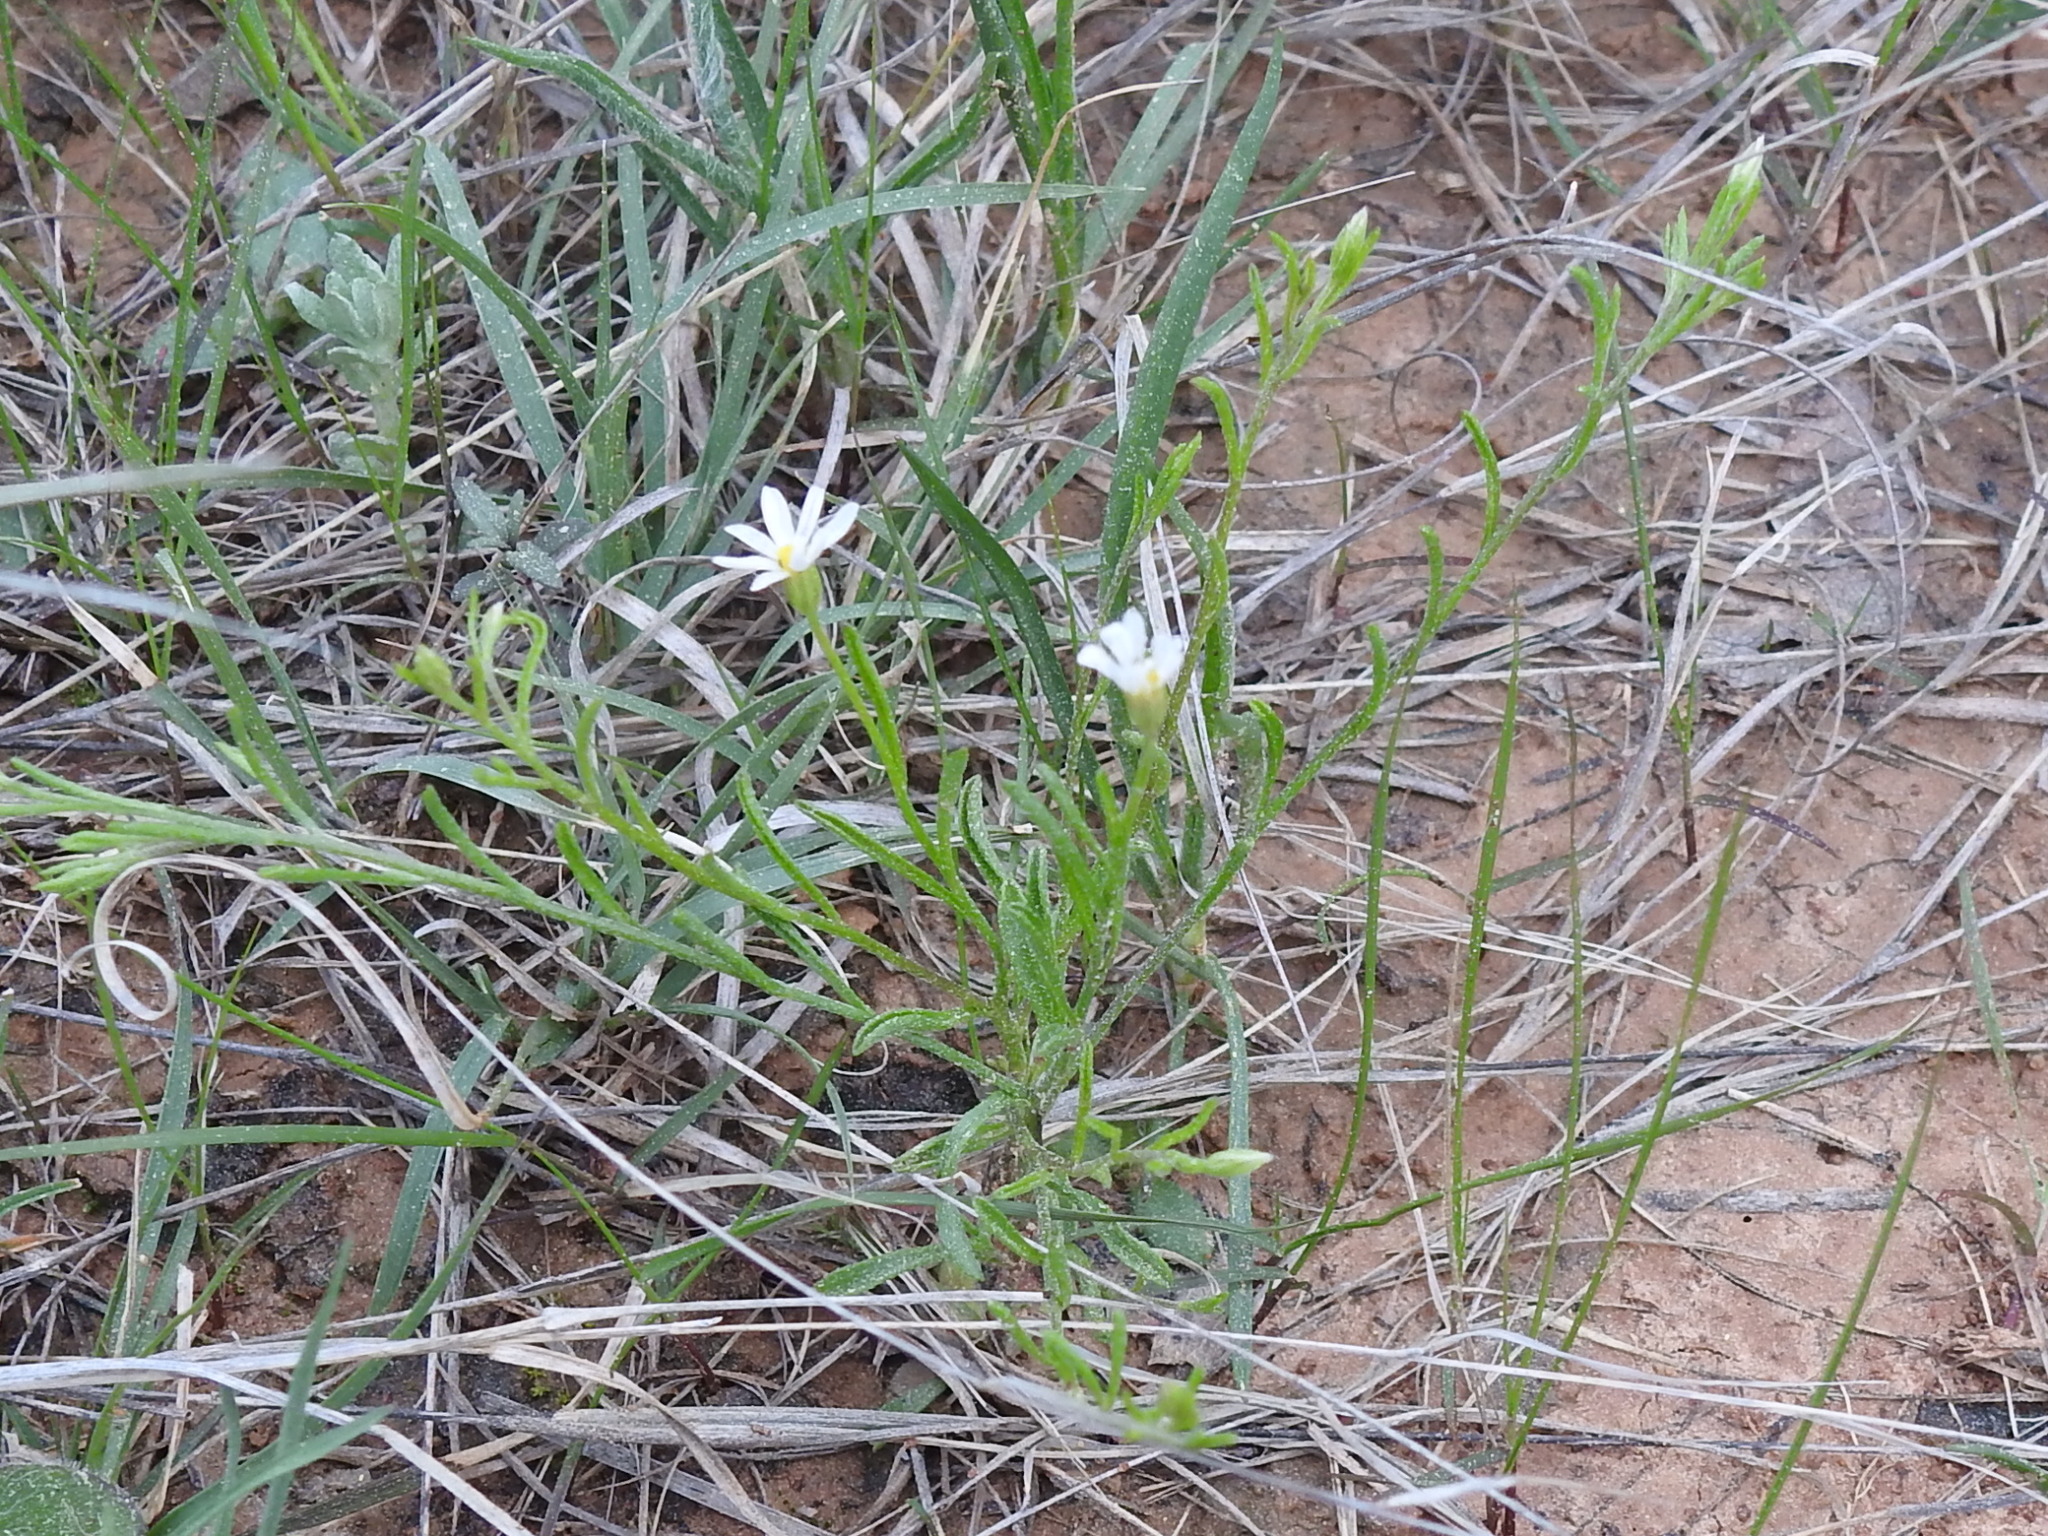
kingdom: Plantae
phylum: Tracheophyta
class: Magnoliopsida
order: Asterales
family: Asteraceae
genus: Chaetopappa
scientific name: Chaetopappa asteroides
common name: Tiny lazy daisy
